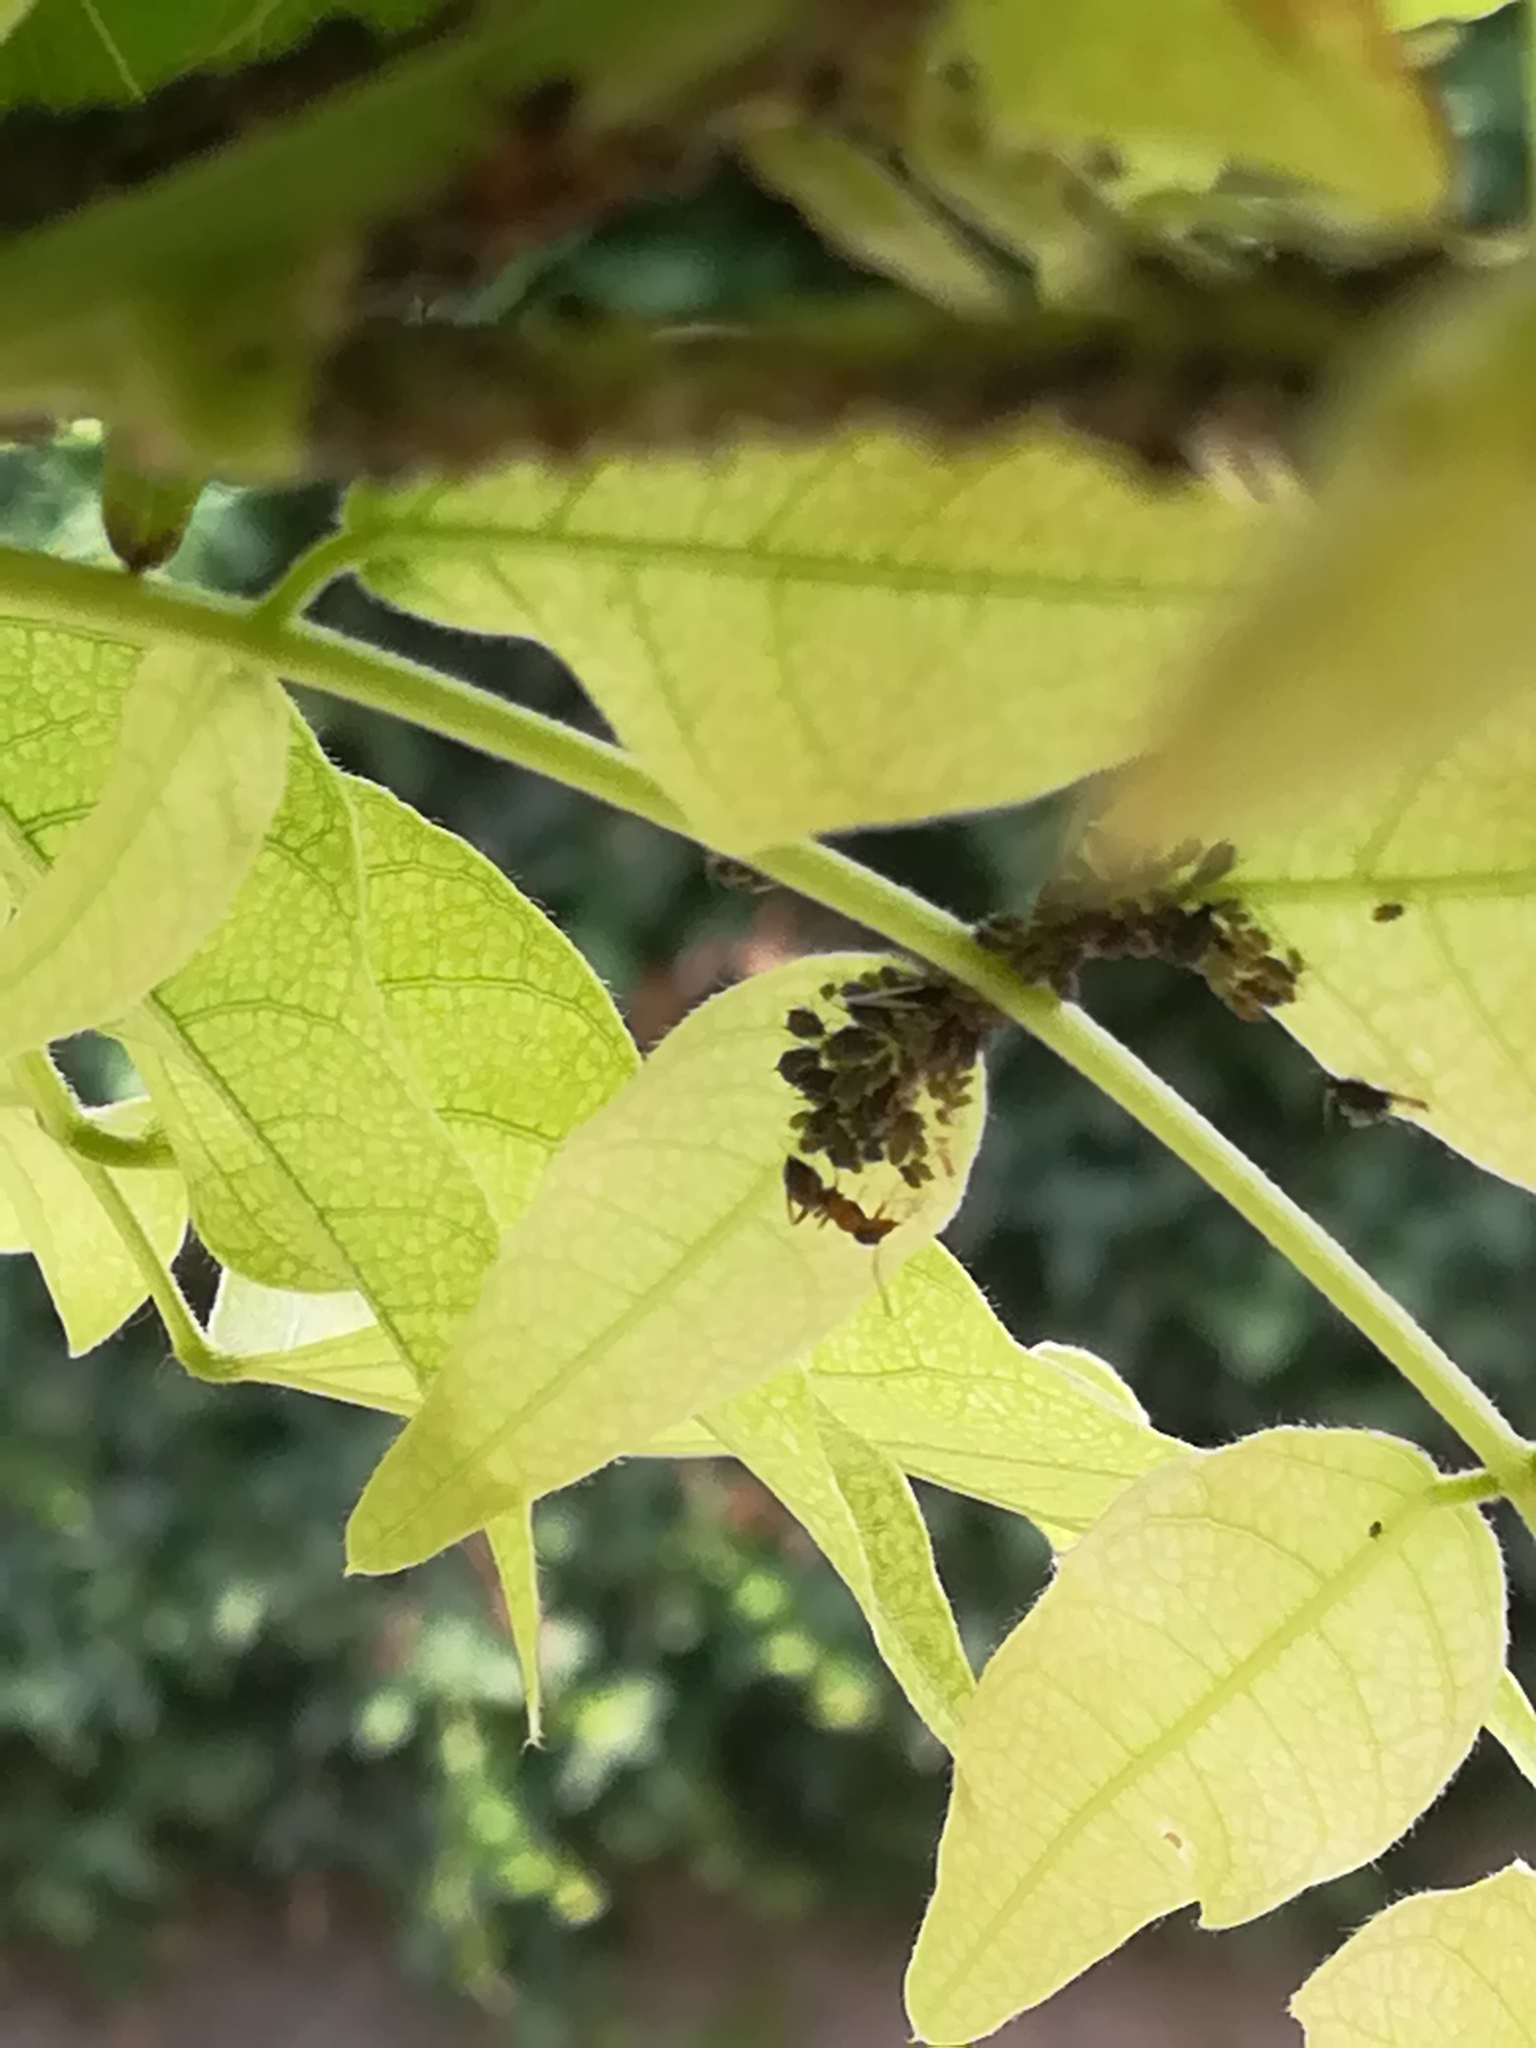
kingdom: Animalia
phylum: Arthropoda
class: Insecta
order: Hymenoptera
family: Formicidae
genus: Lasius
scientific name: Lasius emarginatus
